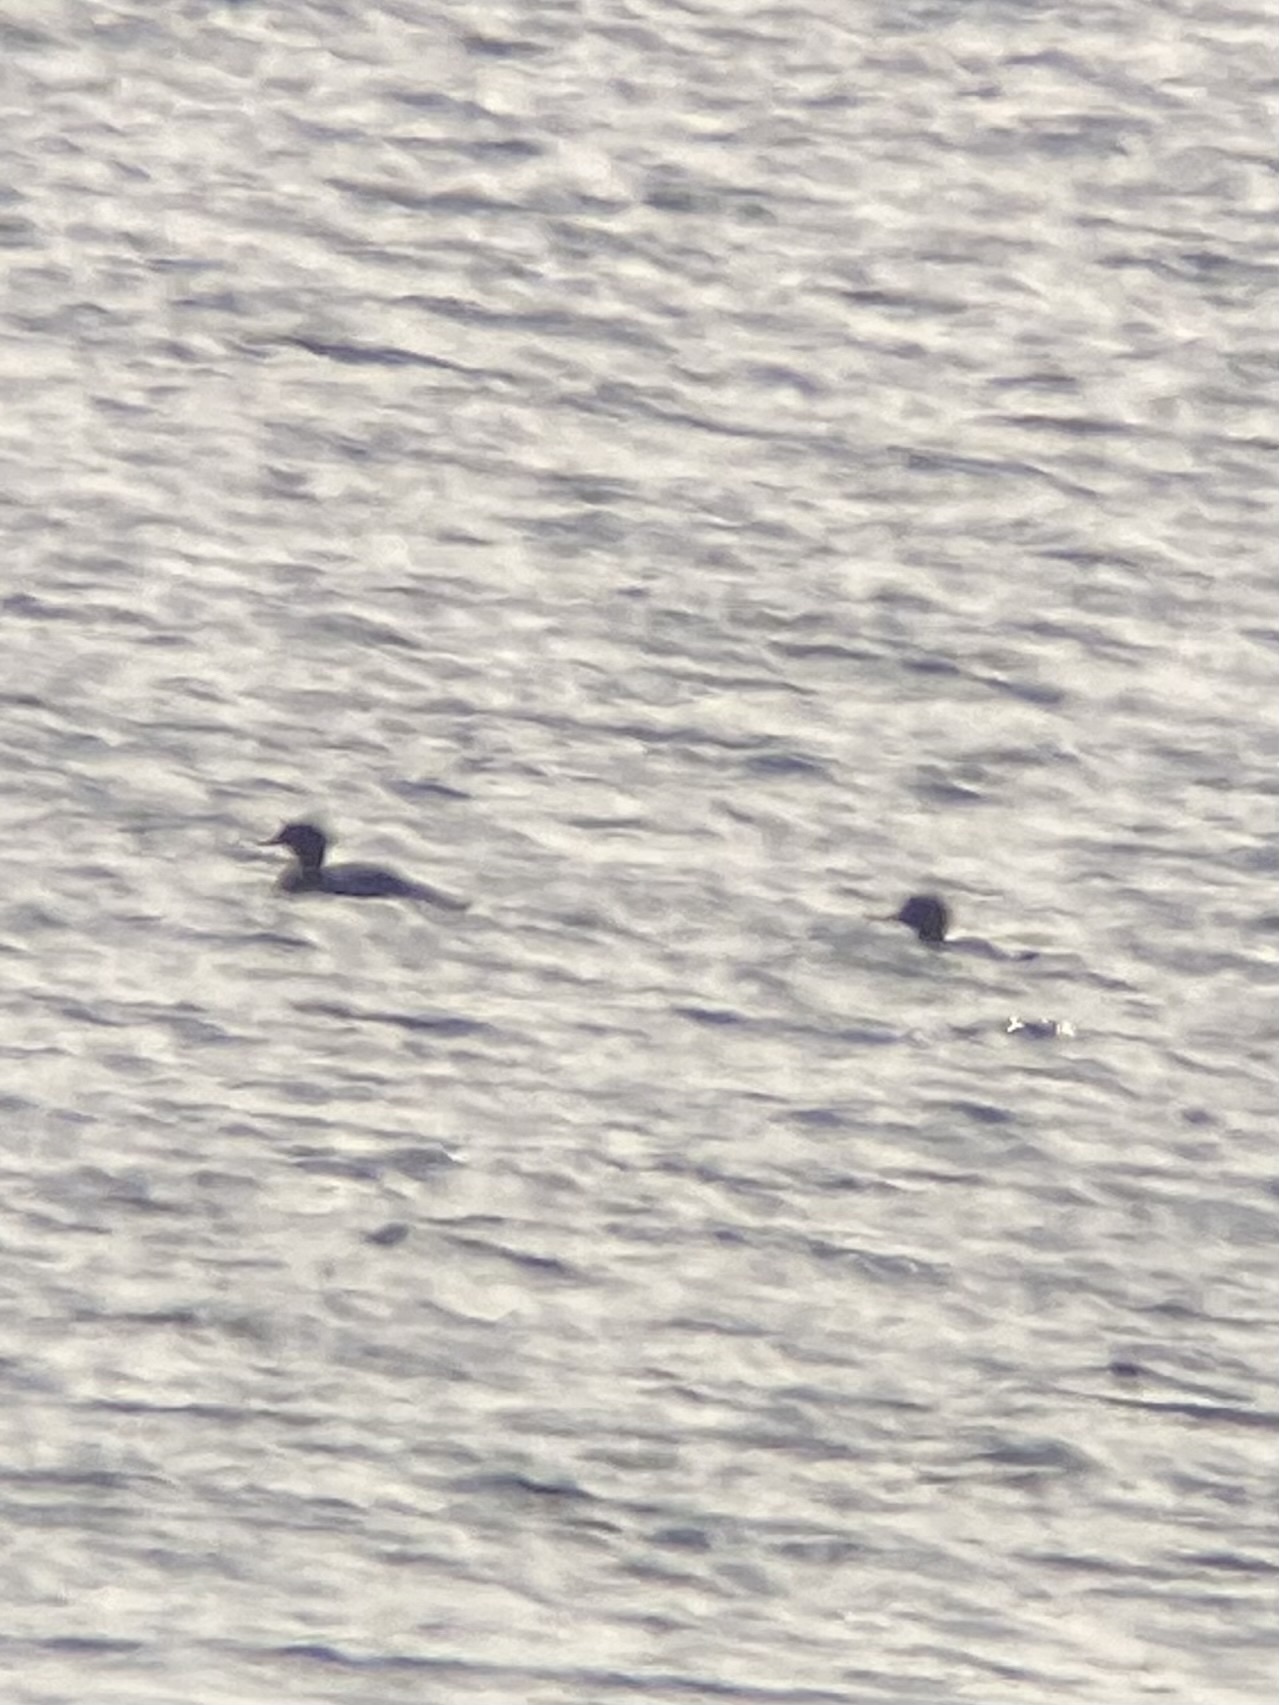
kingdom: Animalia
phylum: Chordata
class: Aves
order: Anseriformes
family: Anatidae
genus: Mergus
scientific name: Mergus serrator
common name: Red-breasted merganser
